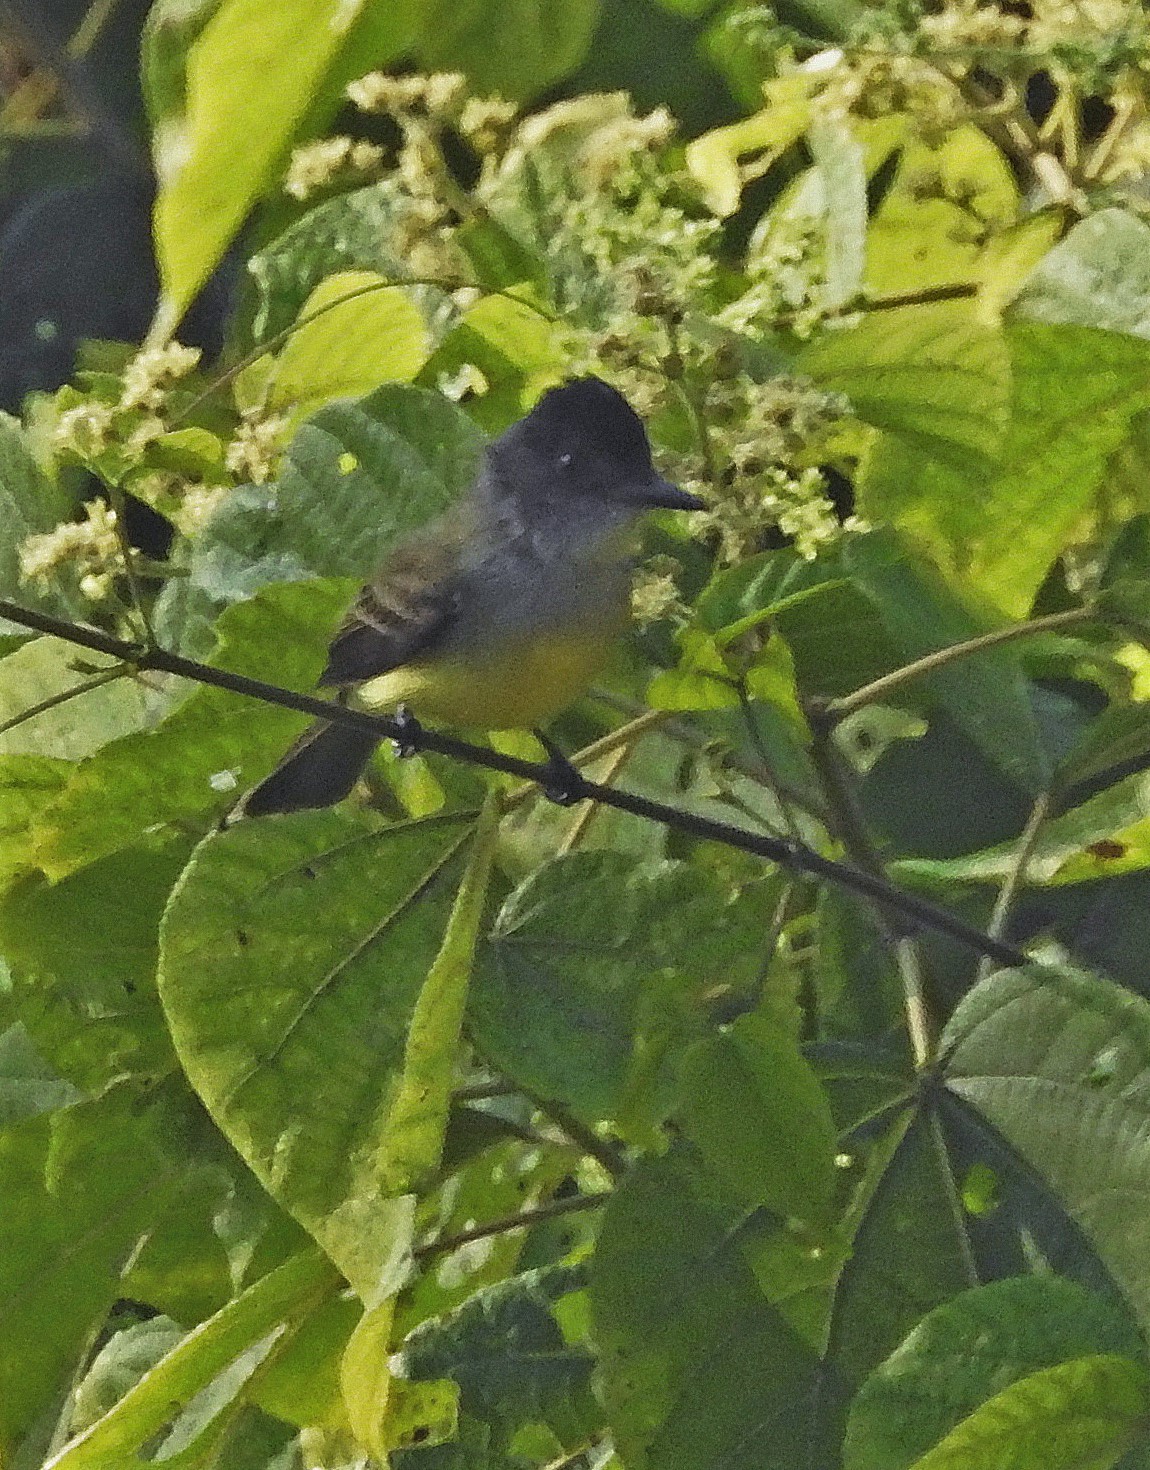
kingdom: Animalia
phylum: Chordata
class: Aves
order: Passeriformes
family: Tyrannidae
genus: Myiarchus
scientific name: Myiarchus tuberculifer
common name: Dusky-capped flycatcher
